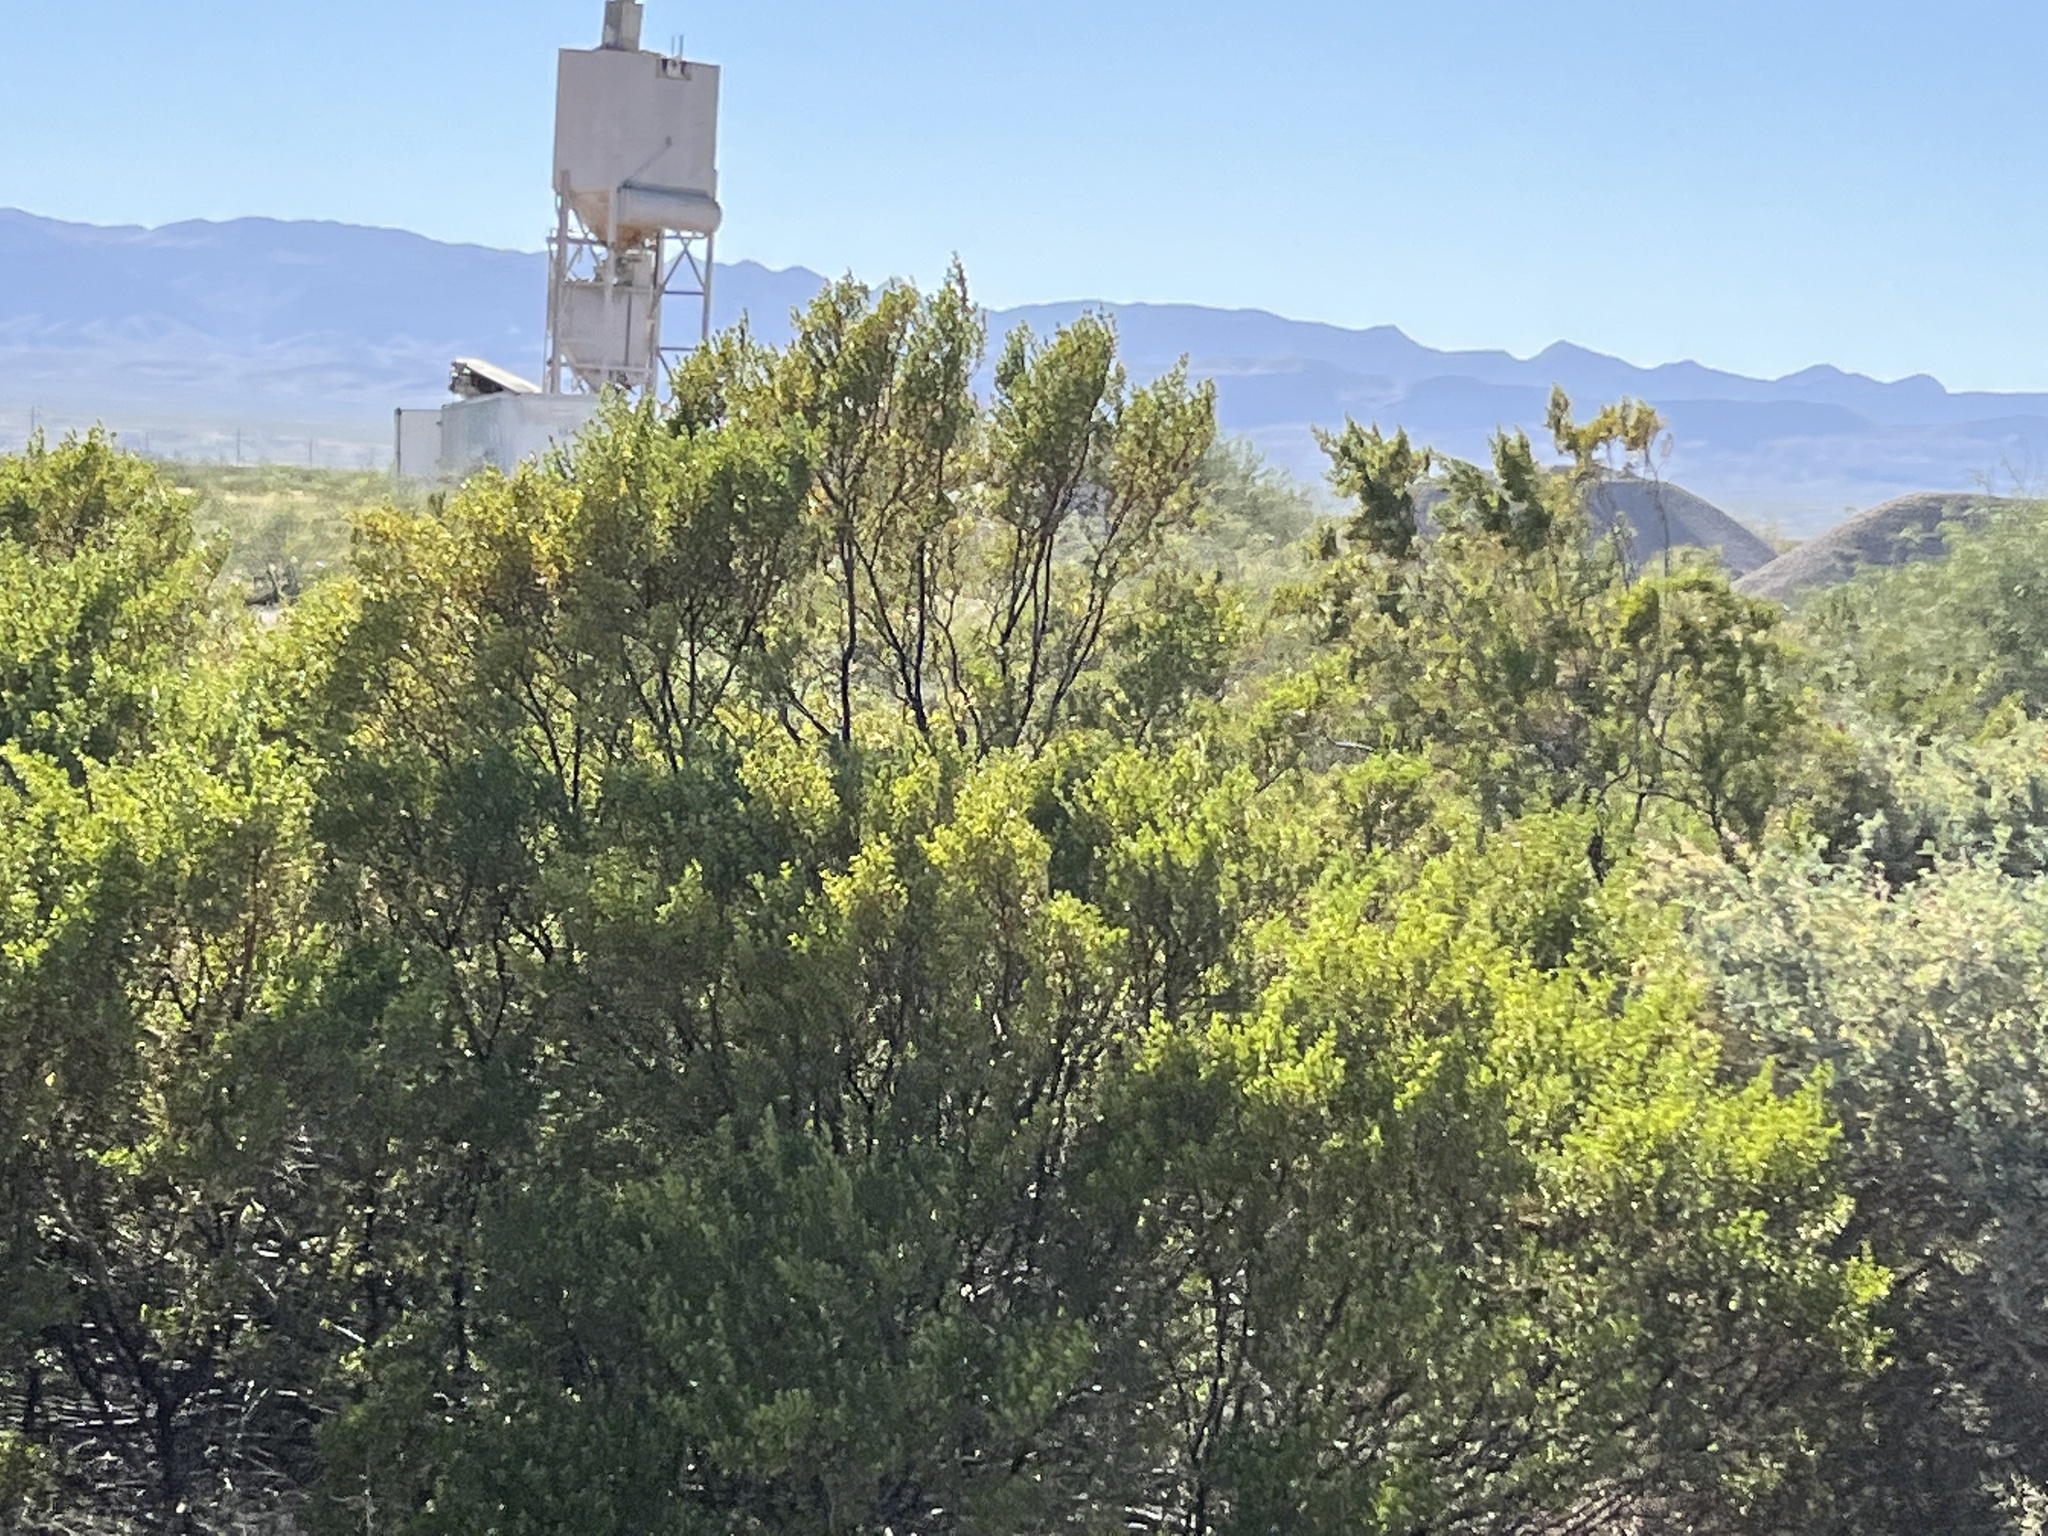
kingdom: Plantae
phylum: Tracheophyta
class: Magnoliopsida
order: Zygophyllales
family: Zygophyllaceae
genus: Larrea
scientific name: Larrea tridentata
